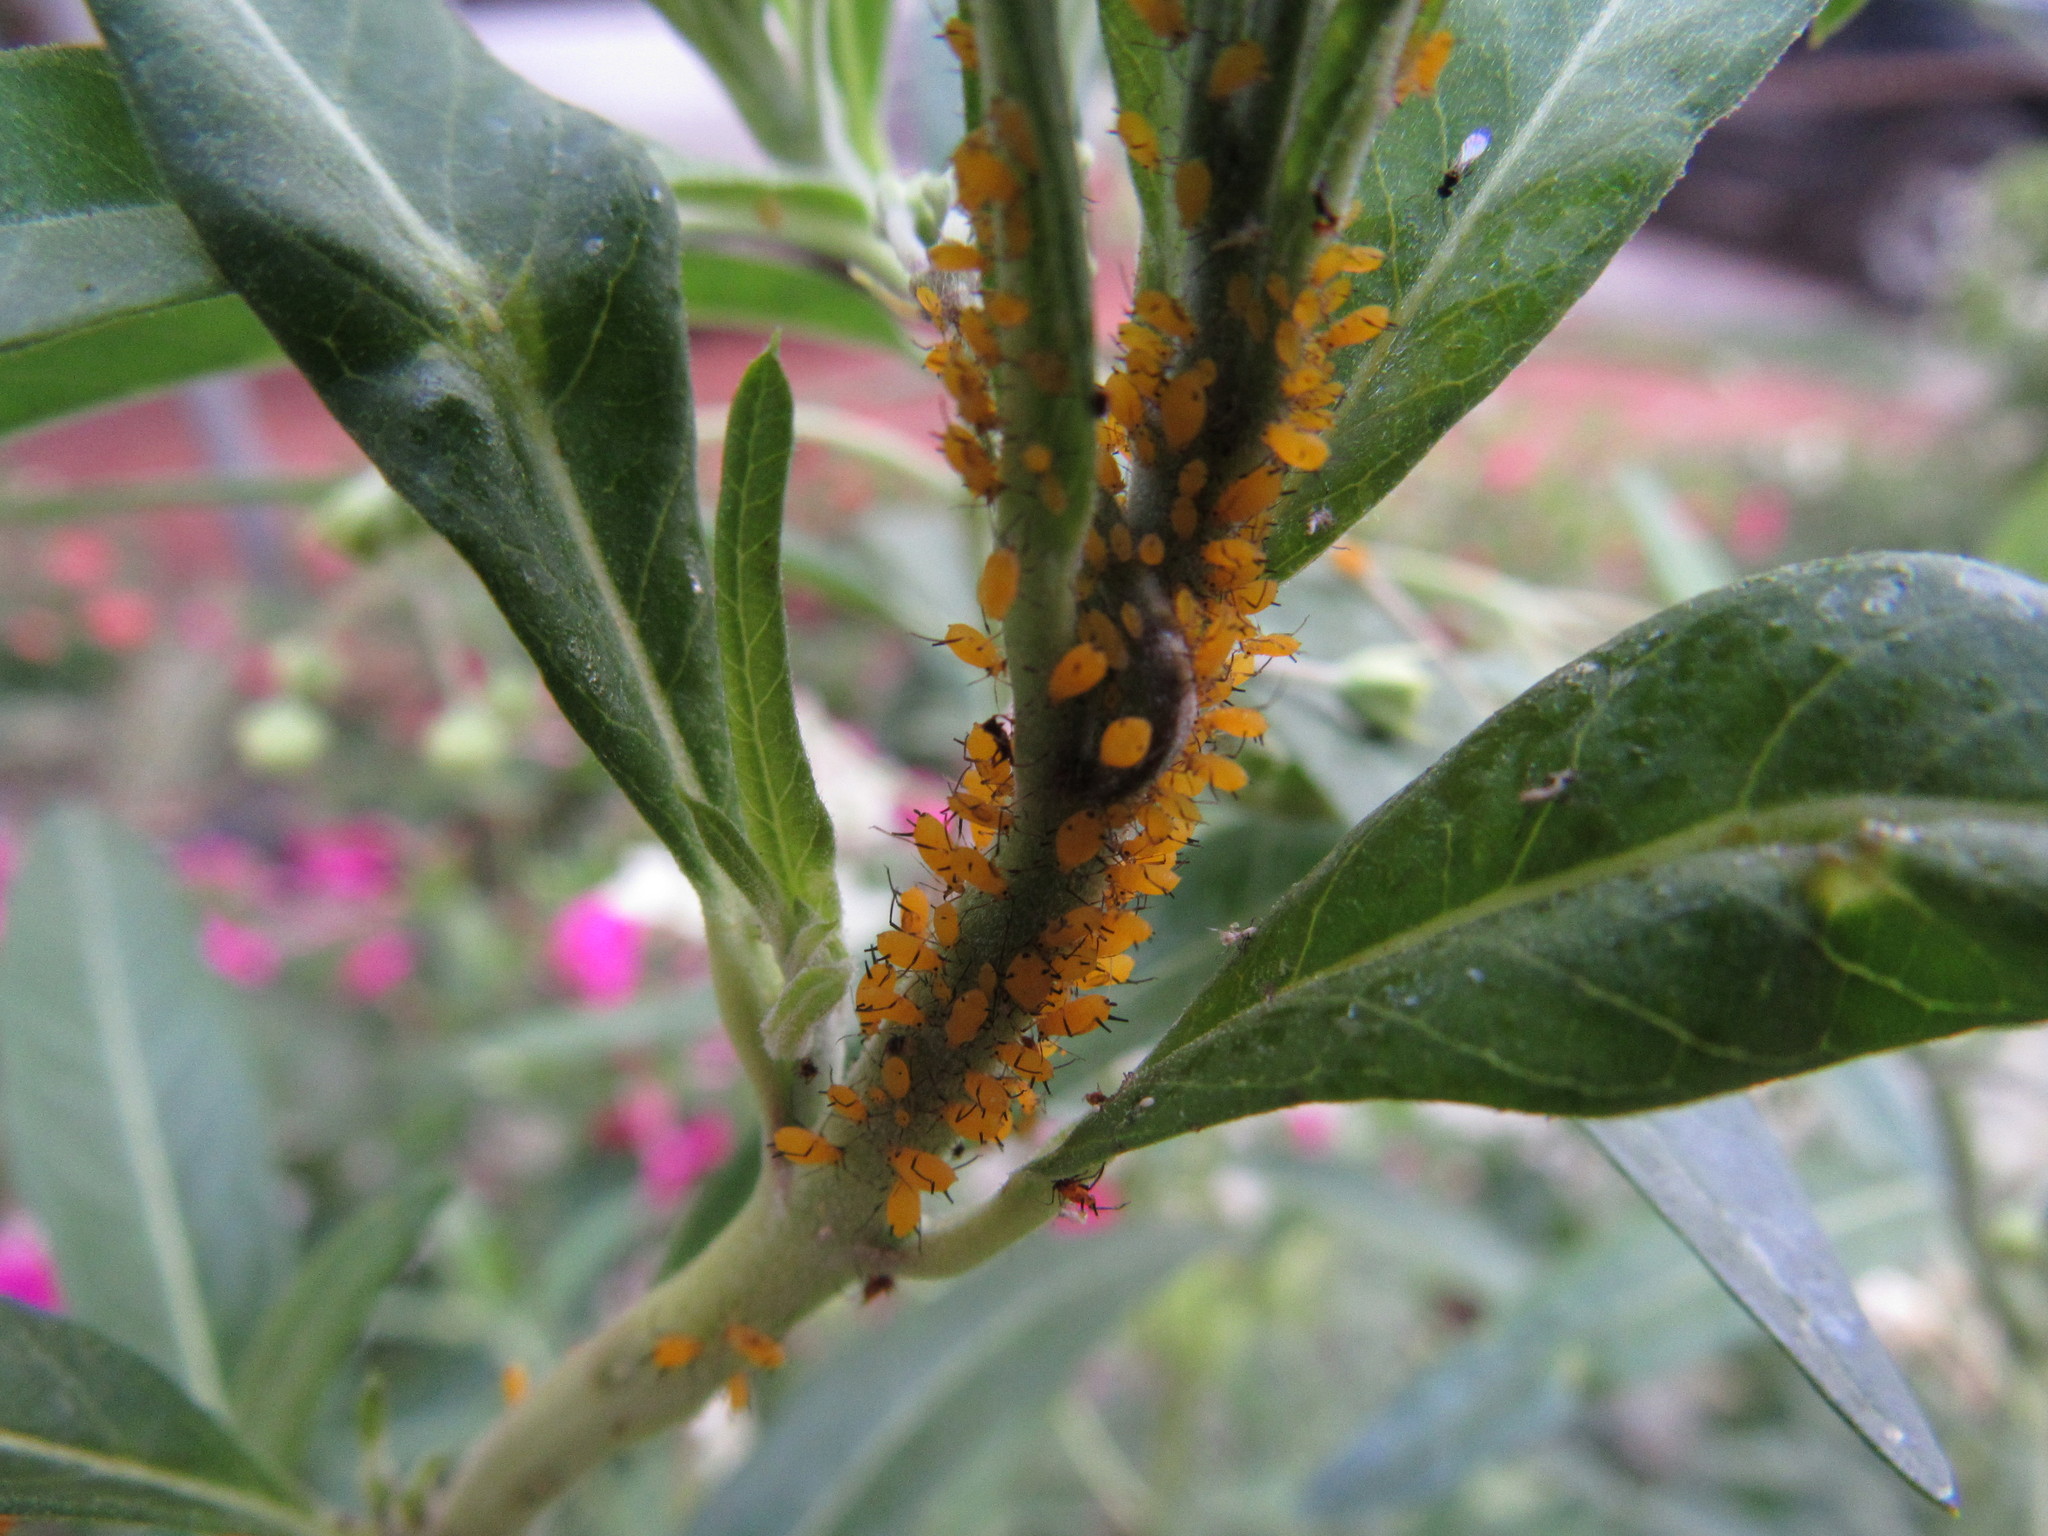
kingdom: Animalia
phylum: Arthropoda
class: Insecta
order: Hemiptera
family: Aphididae
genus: Aphis
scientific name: Aphis nerii
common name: Oleander aphid
